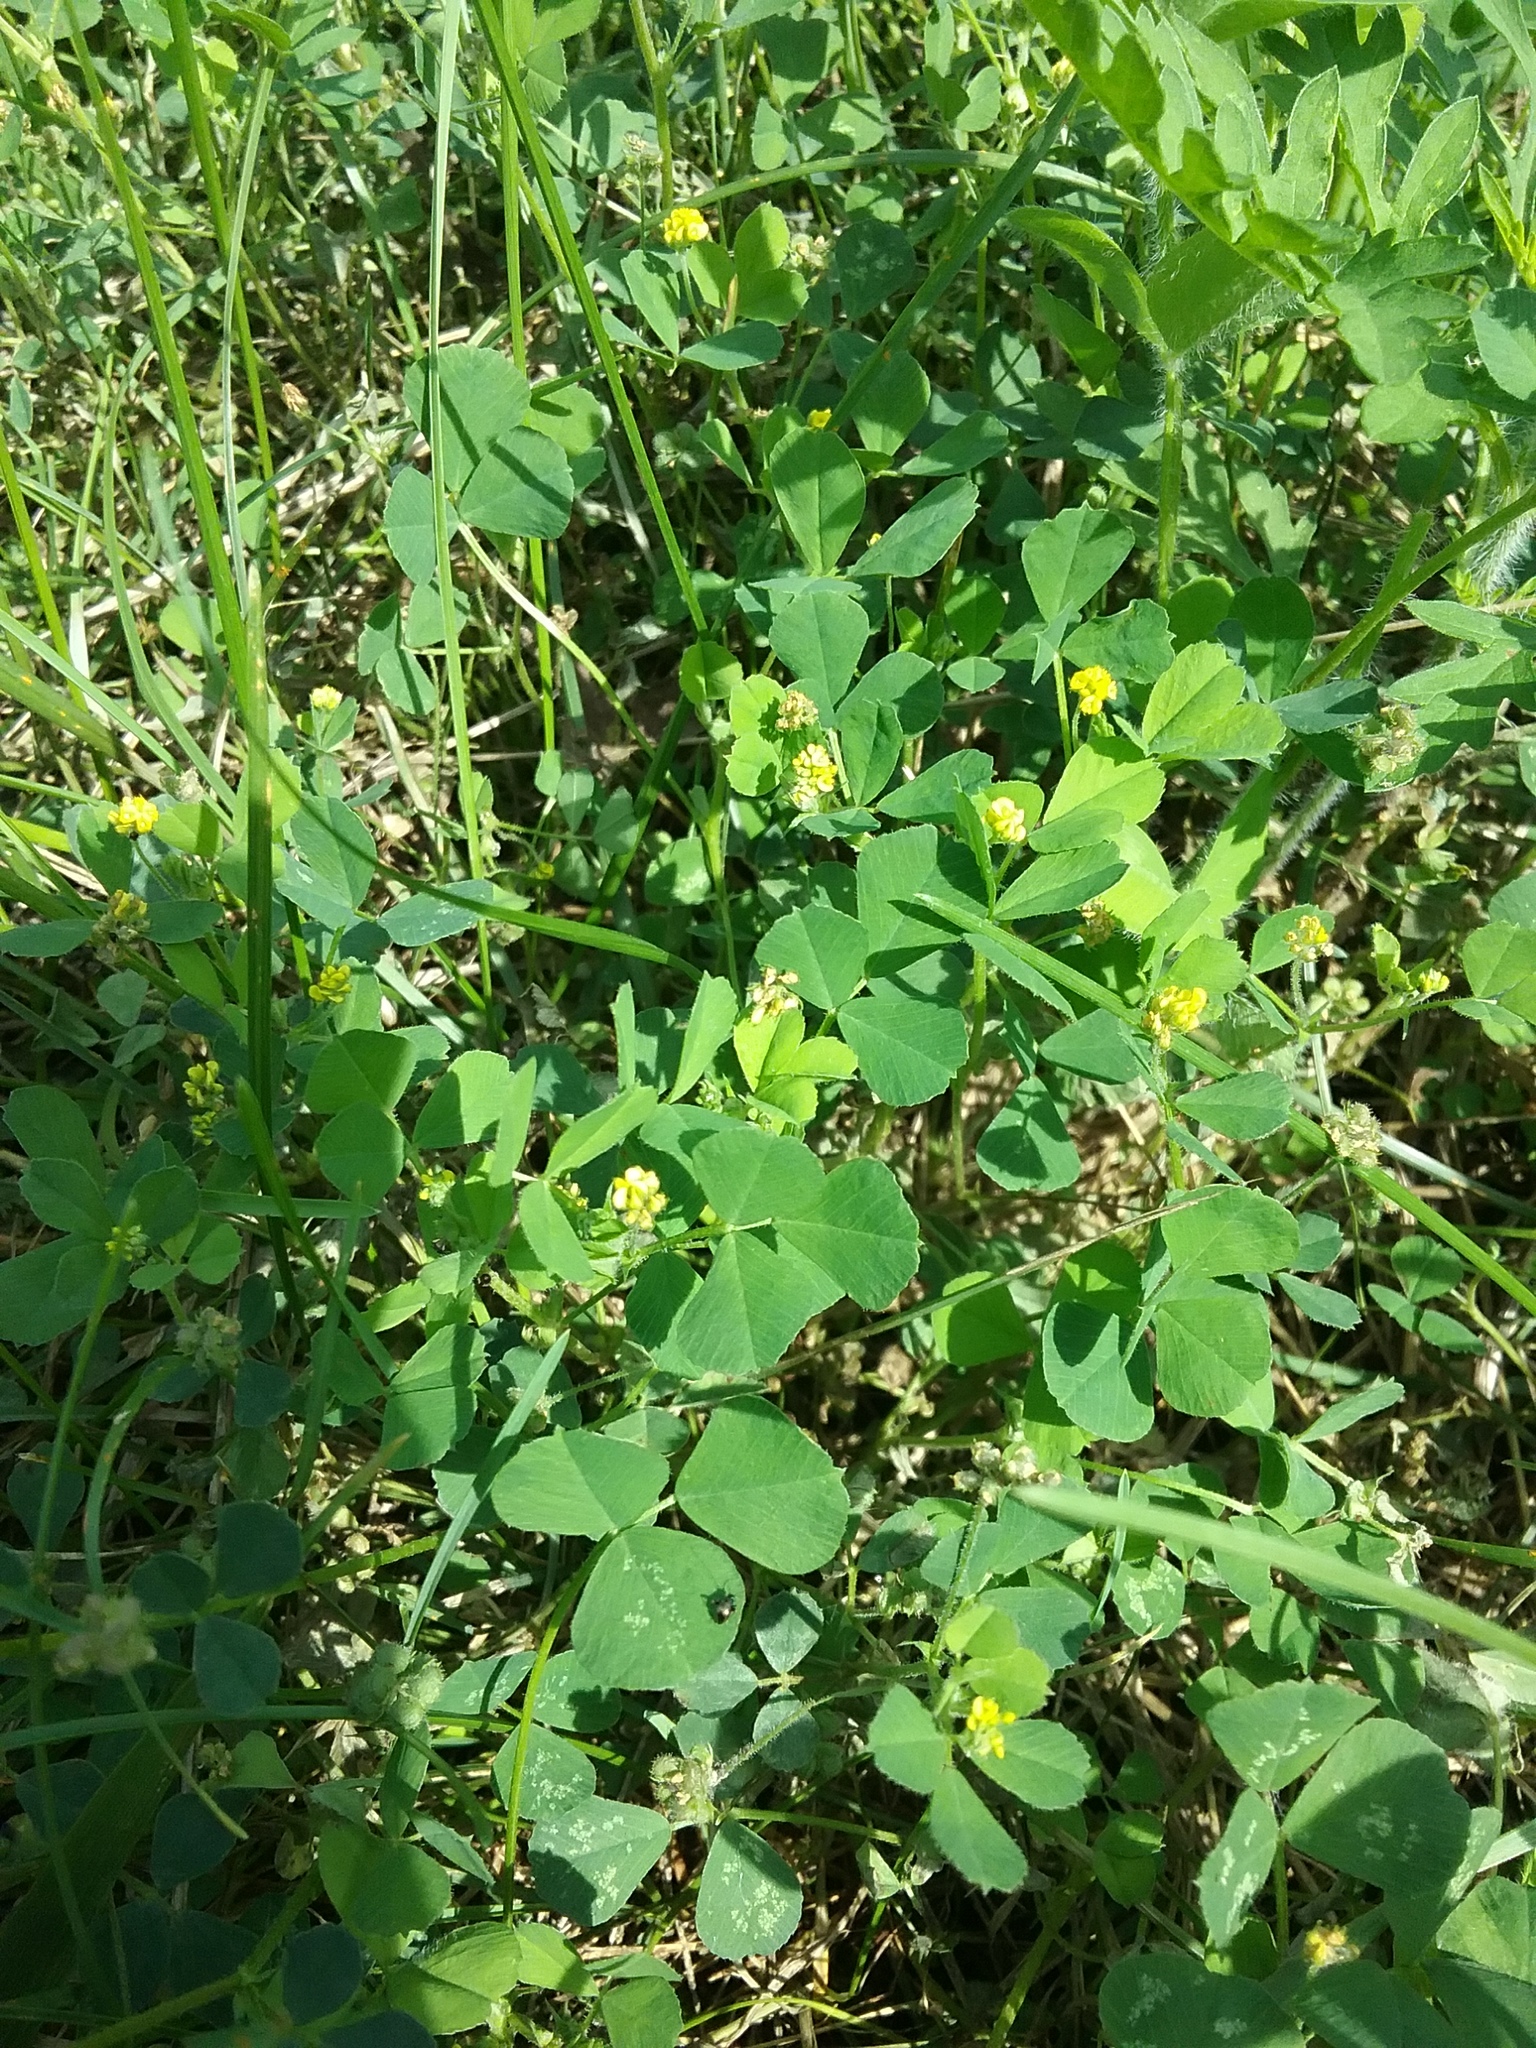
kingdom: Plantae
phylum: Tracheophyta
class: Magnoliopsida
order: Fabales
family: Fabaceae
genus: Medicago
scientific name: Medicago lupulina
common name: Black medick
